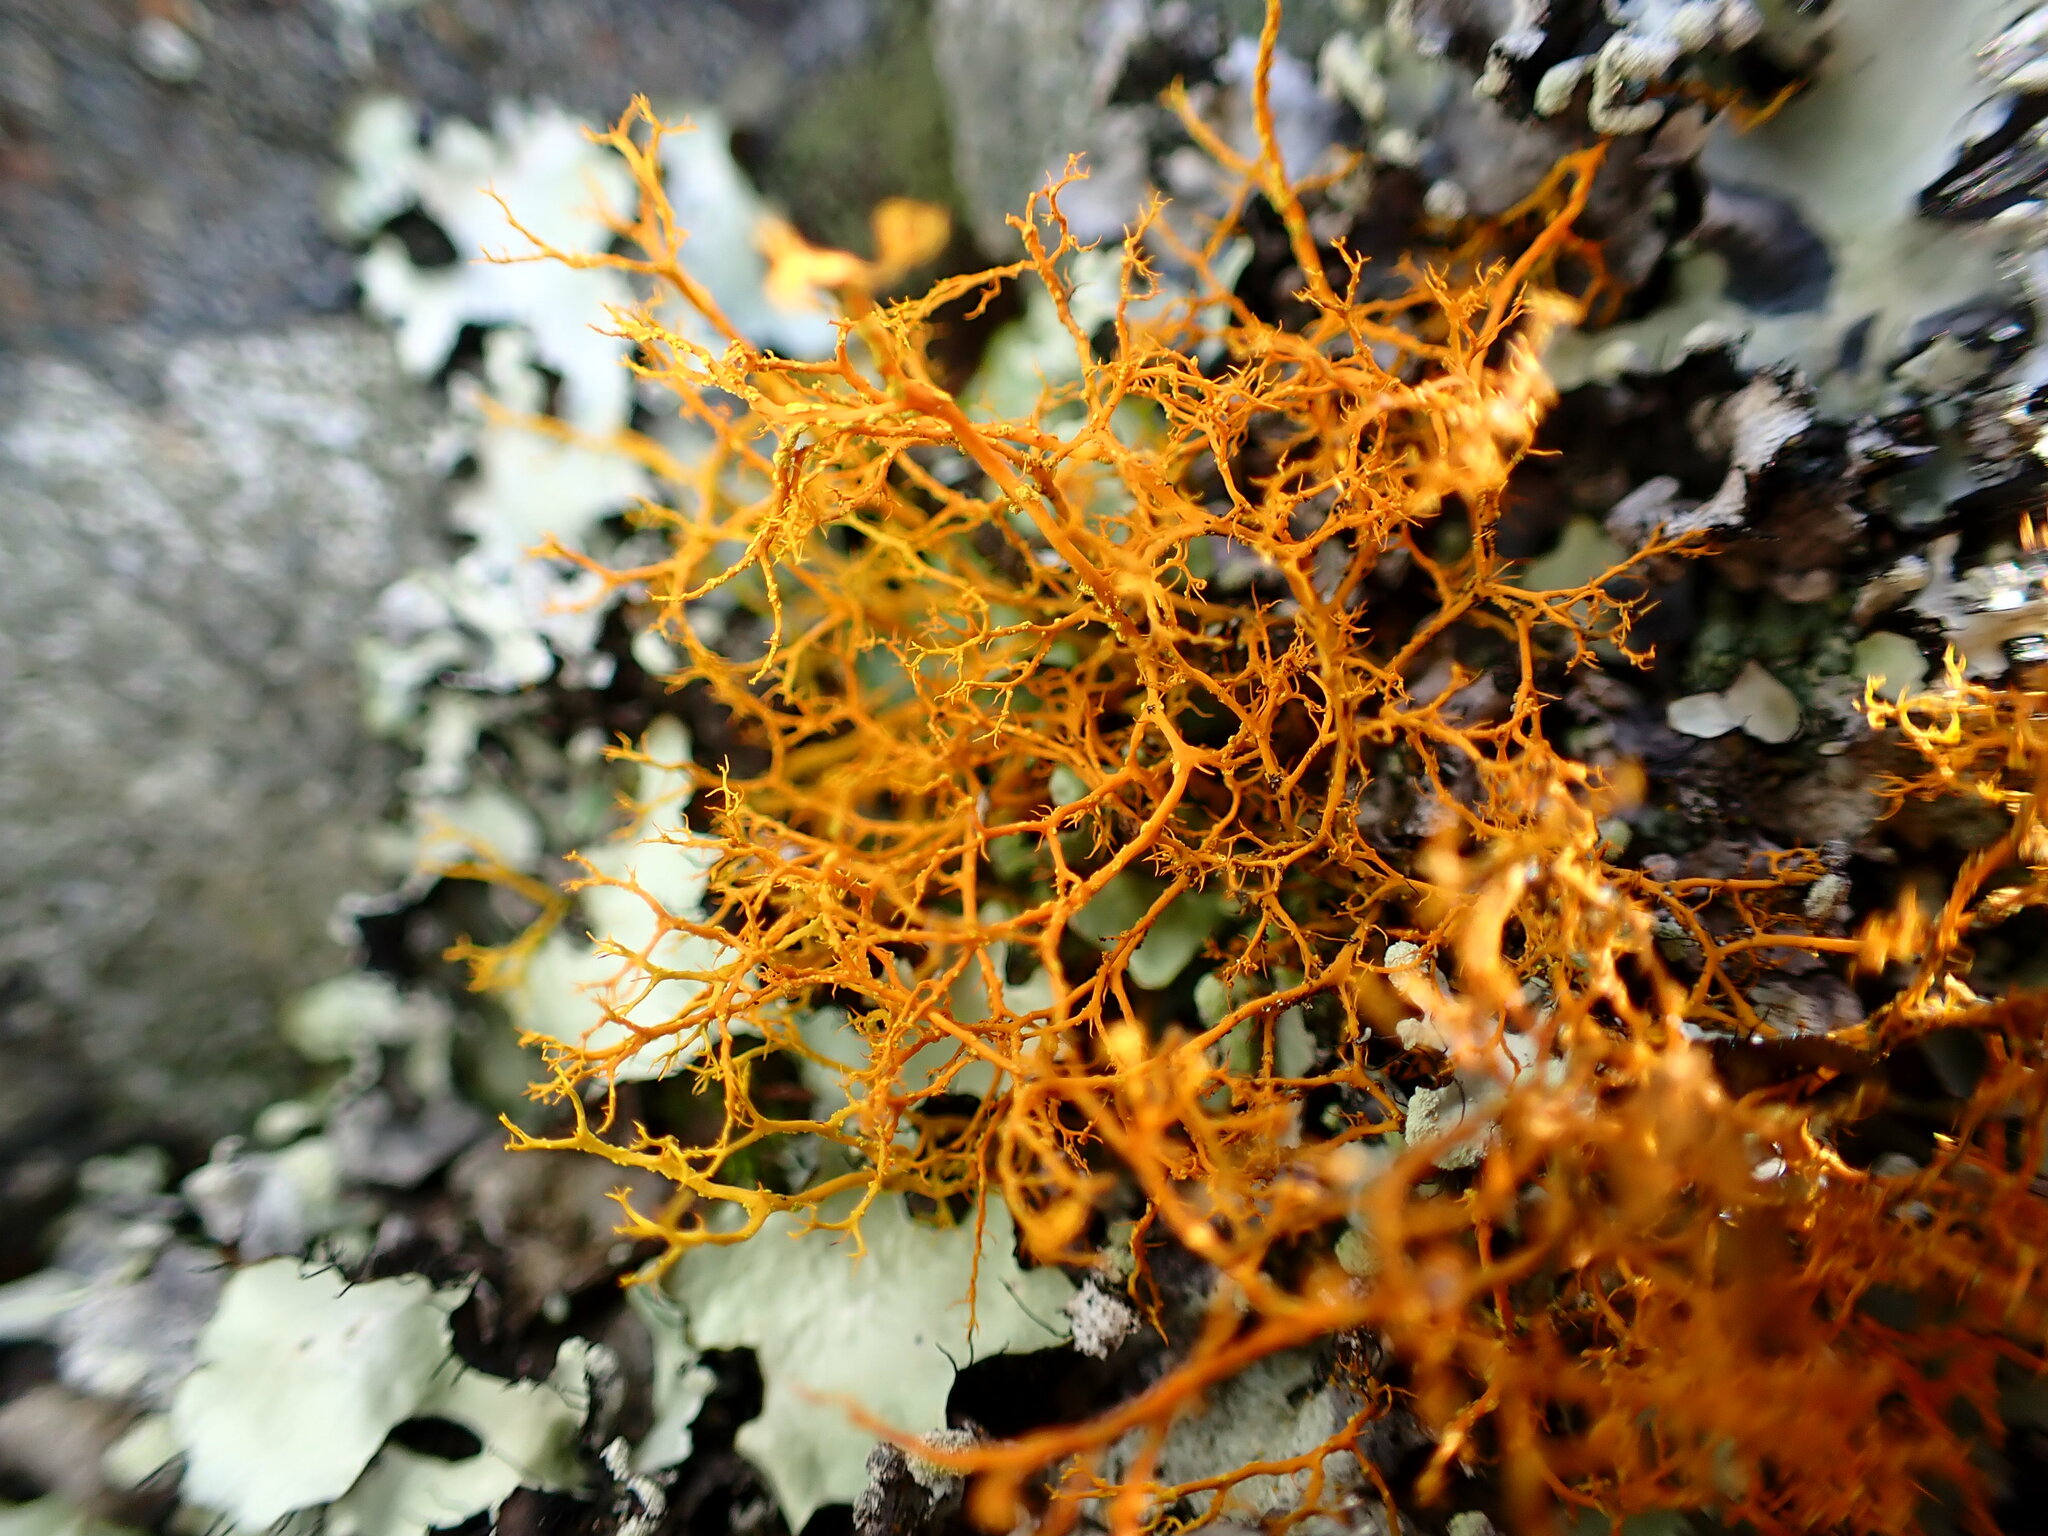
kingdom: Fungi
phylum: Ascomycota
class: Lecanoromycetes
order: Teloschistales
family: Teloschistaceae
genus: Teloschistes
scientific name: Teloschistes flavicans
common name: Golden hair-lichen
